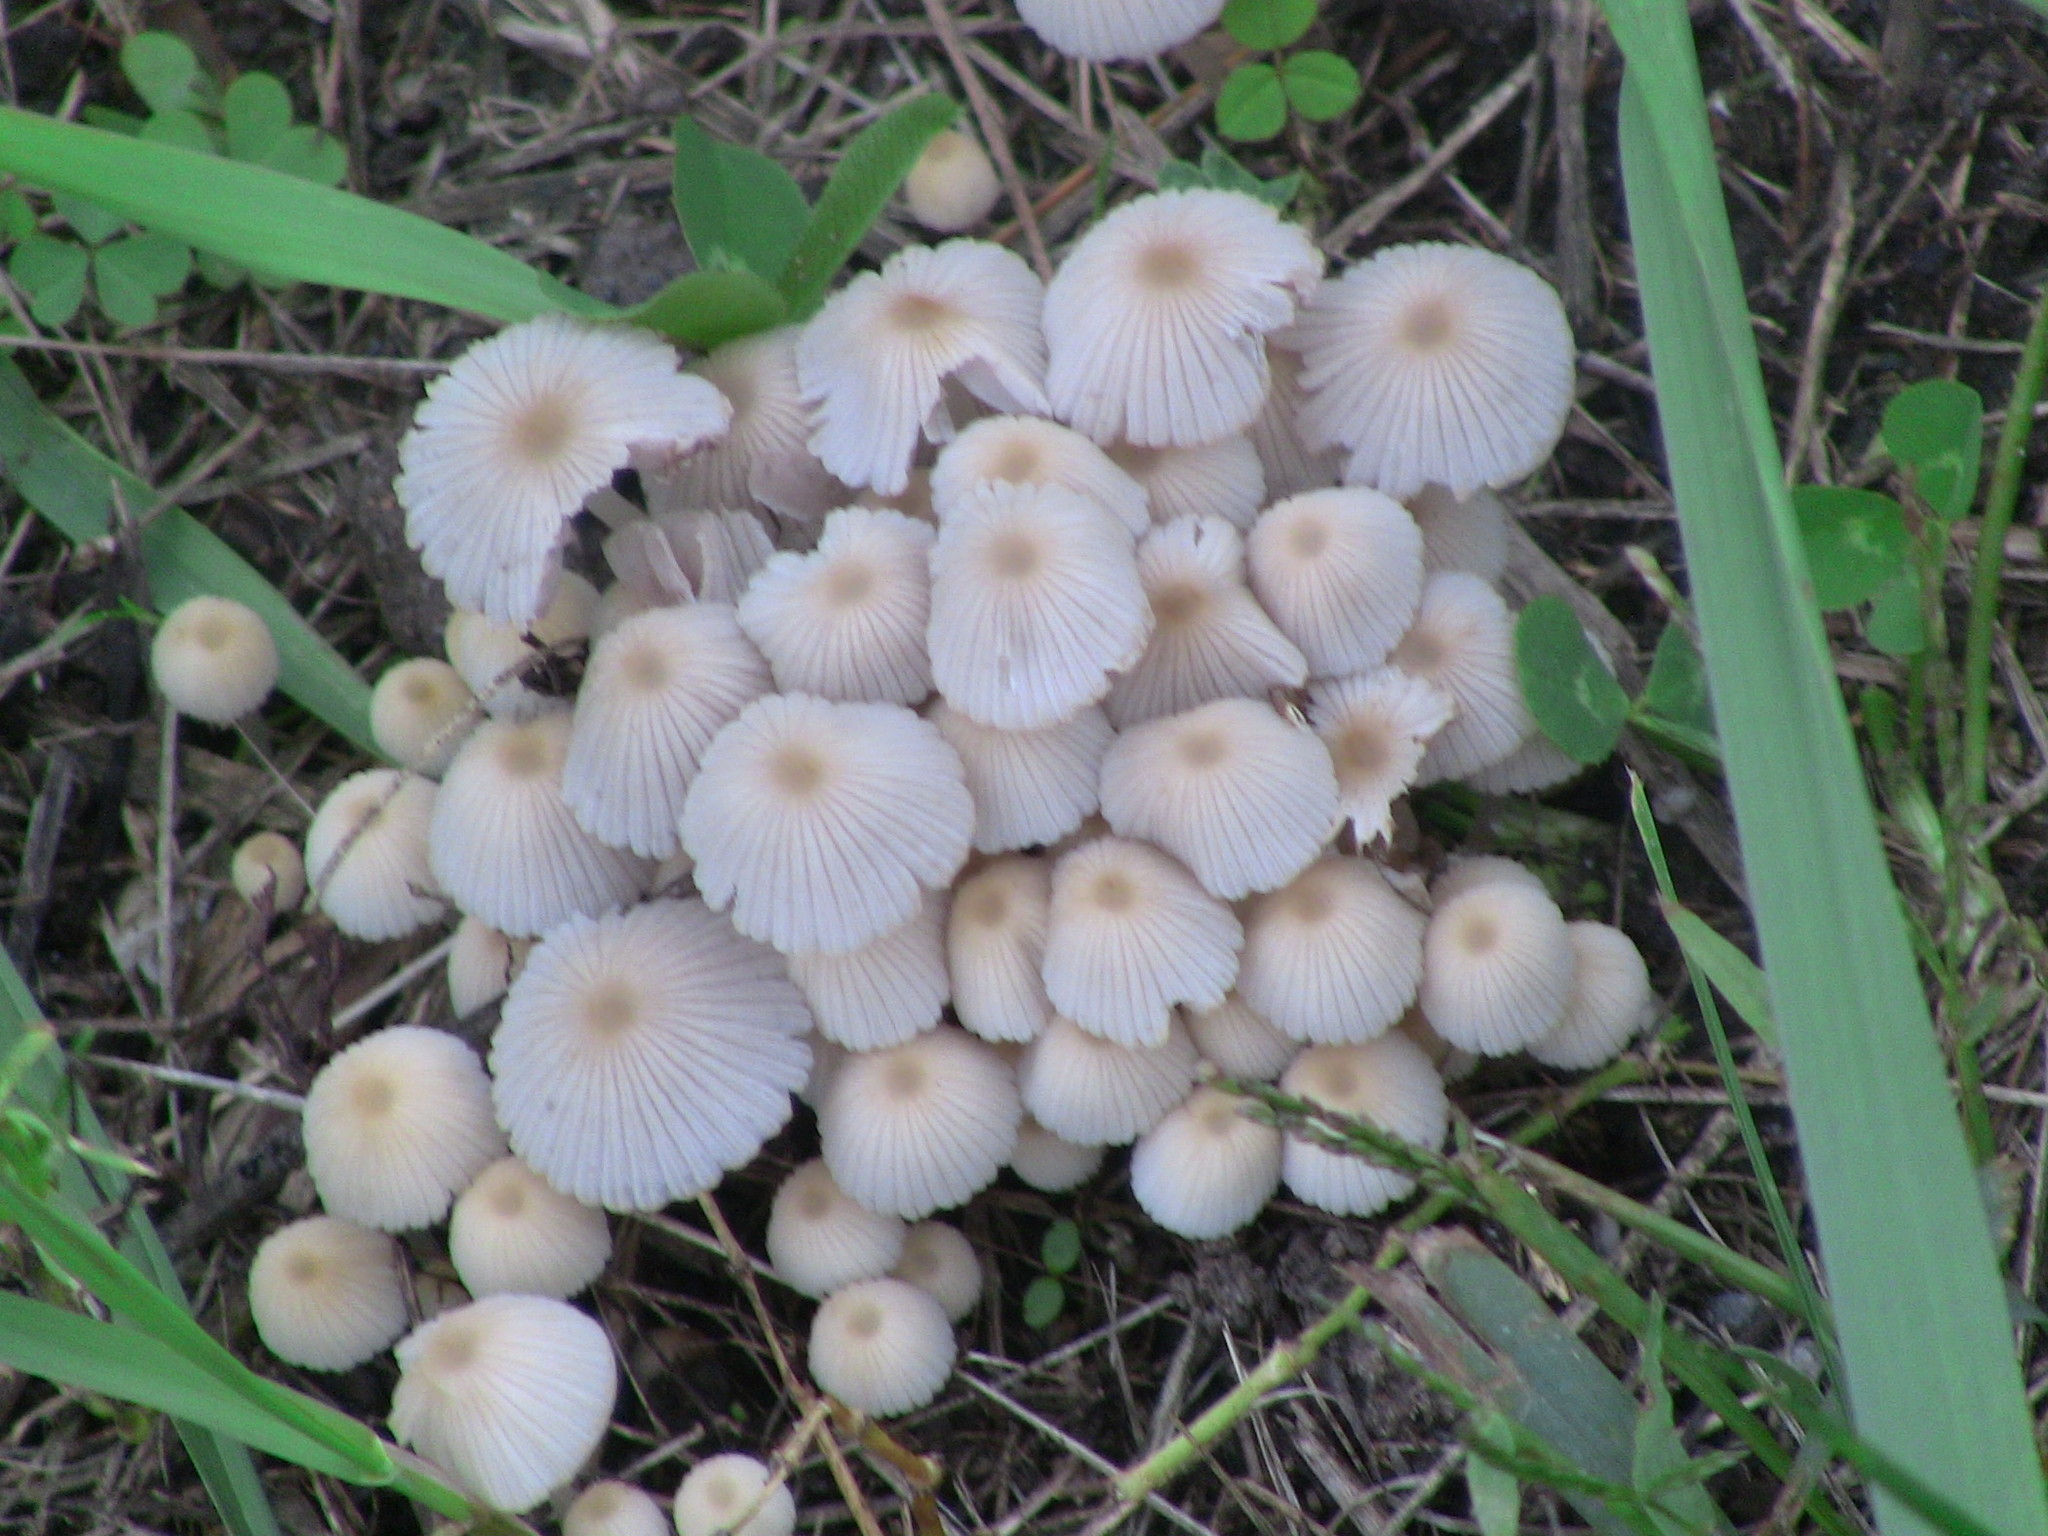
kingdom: Fungi
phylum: Basidiomycota
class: Agaricomycetes
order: Agaricales
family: Psathyrellaceae
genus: Coprinellus
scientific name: Coprinellus disseminatus
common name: Fairies' bonnets
